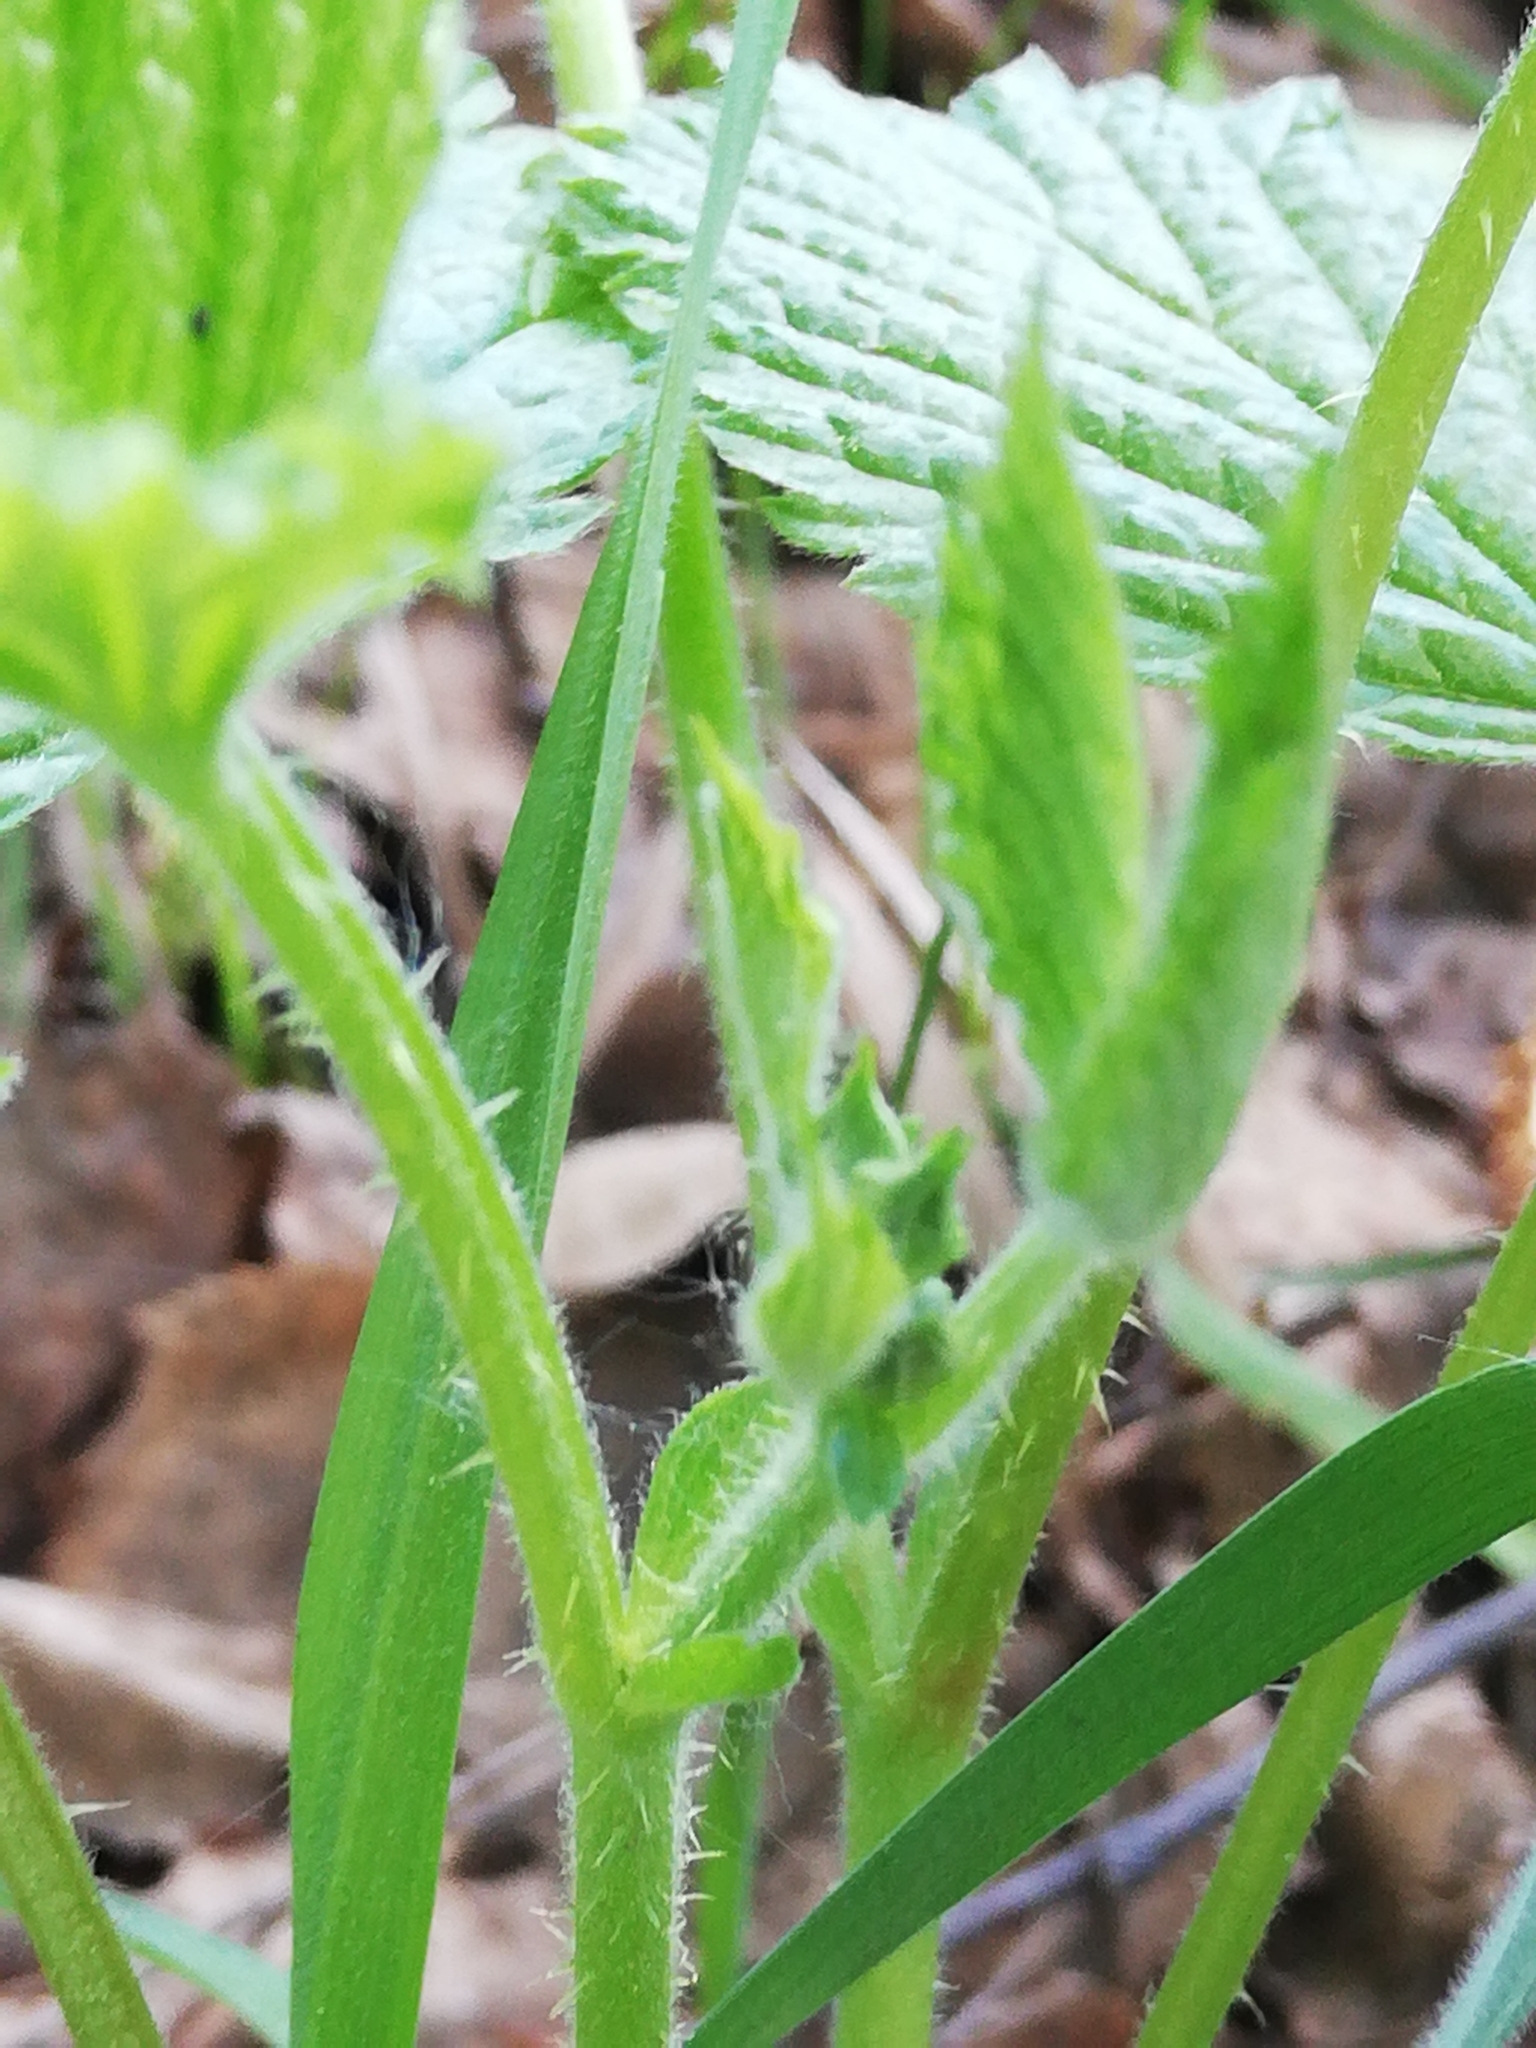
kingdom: Plantae
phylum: Tracheophyta
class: Magnoliopsida
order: Rosales
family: Rosaceae
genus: Rubus
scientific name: Rubus saxatilis
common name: Stone bramble
